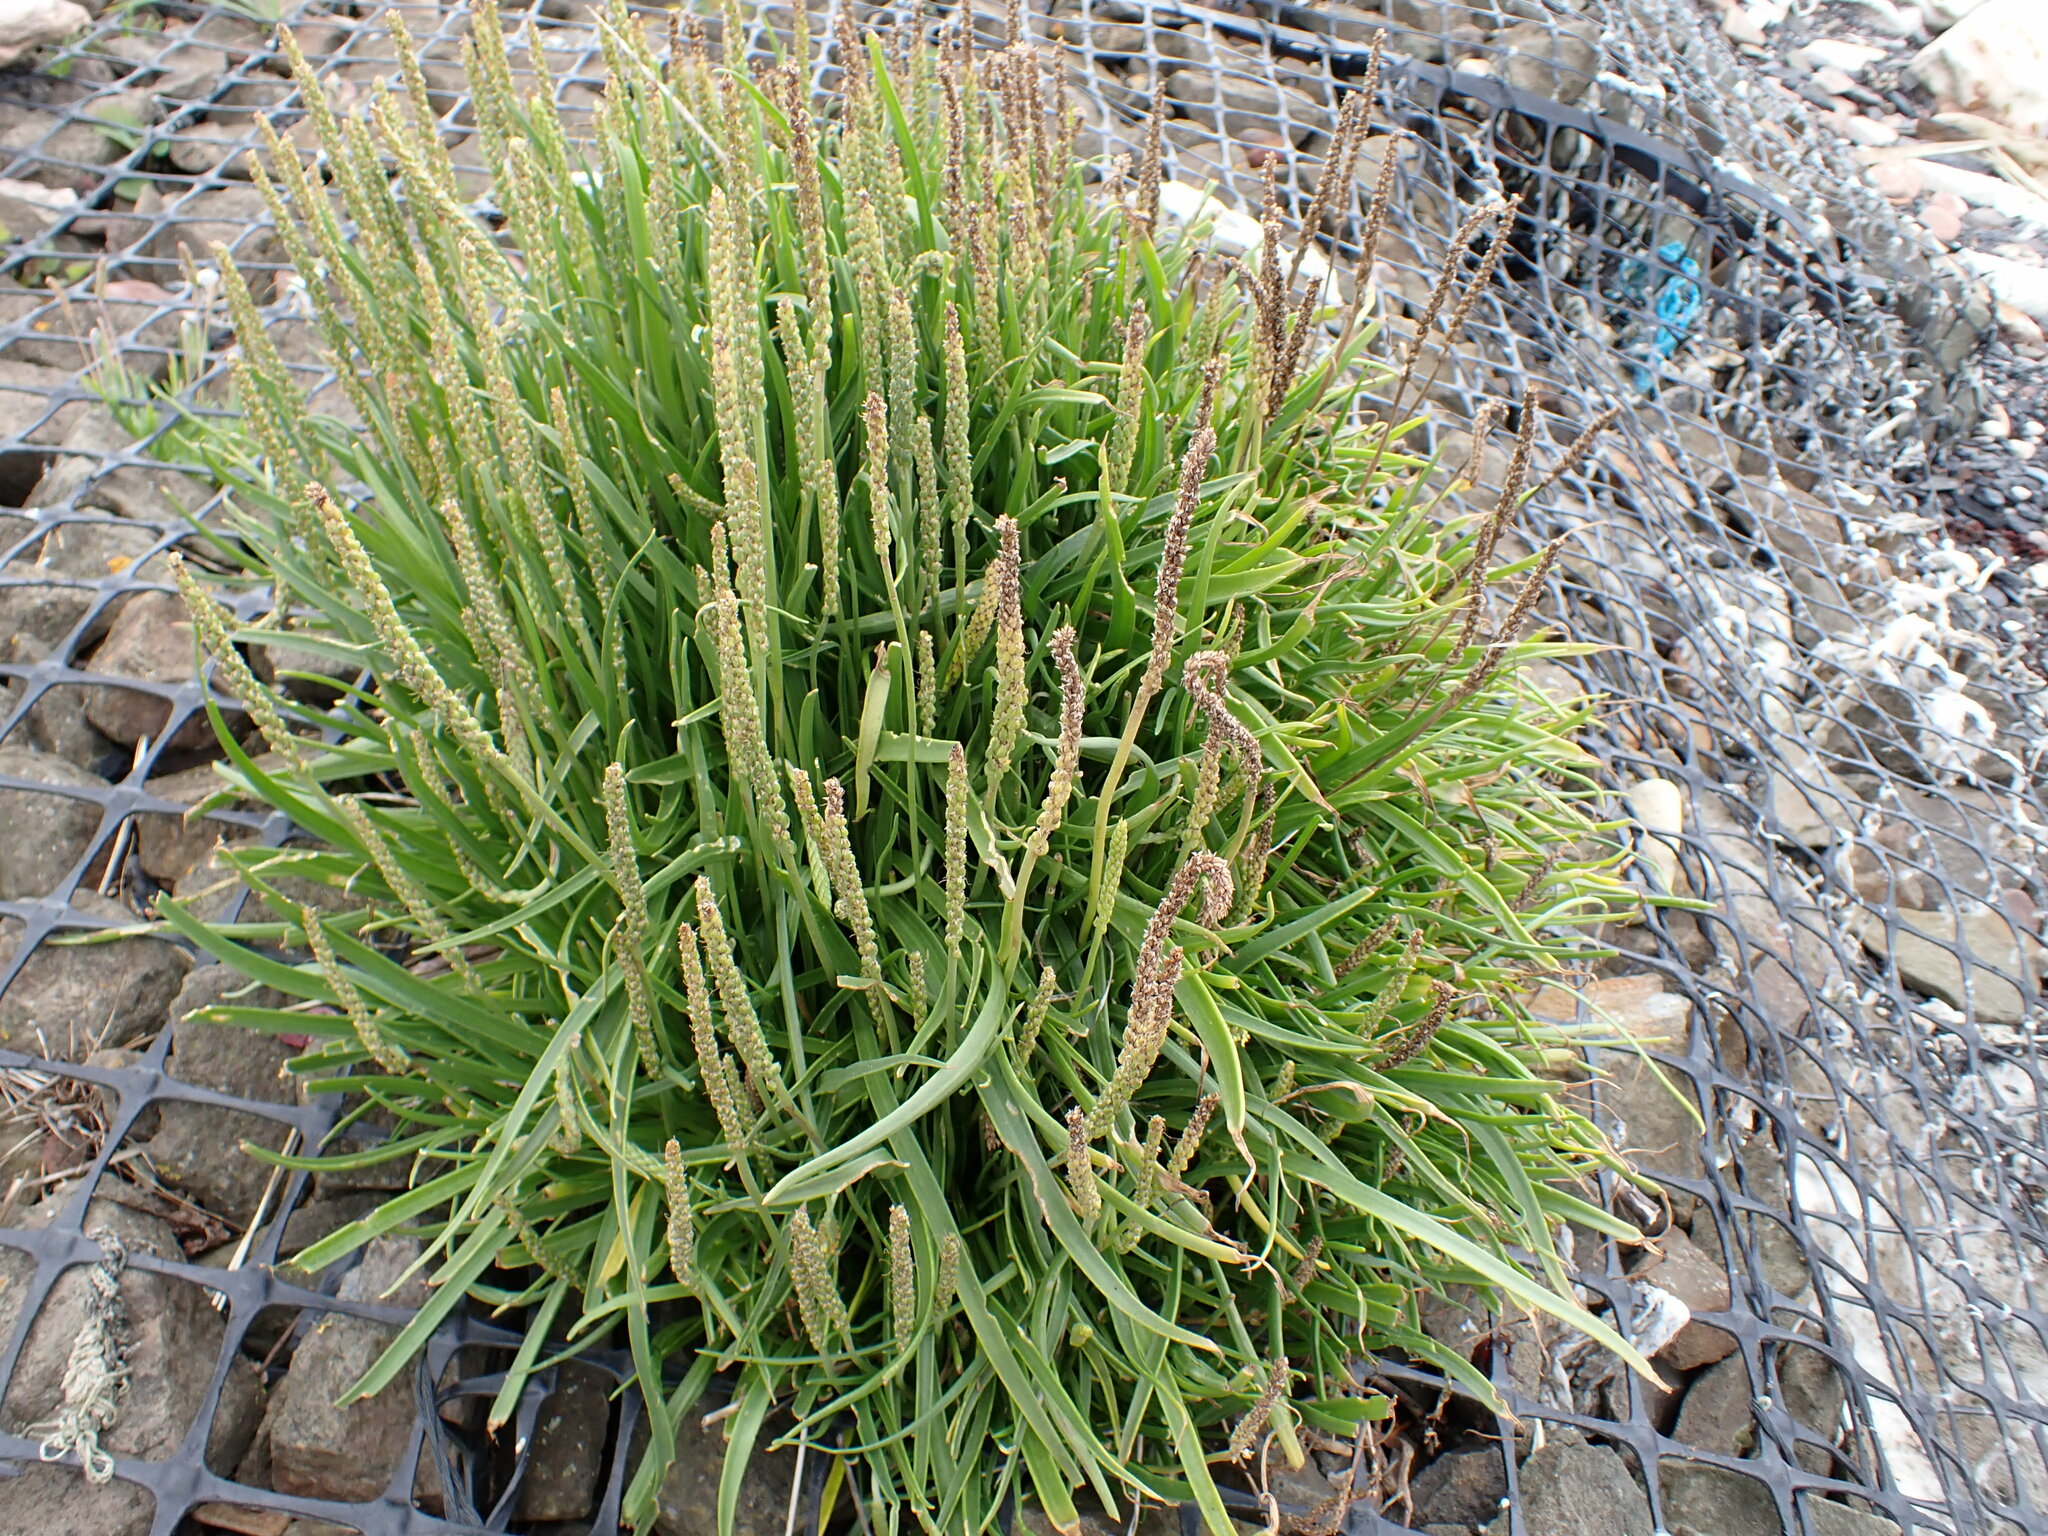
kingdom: Plantae
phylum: Tracheophyta
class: Magnoliopsida
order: Lamiales
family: Plantaginaceae
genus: Plantago
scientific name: Plantago maritima
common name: Sea plantain
